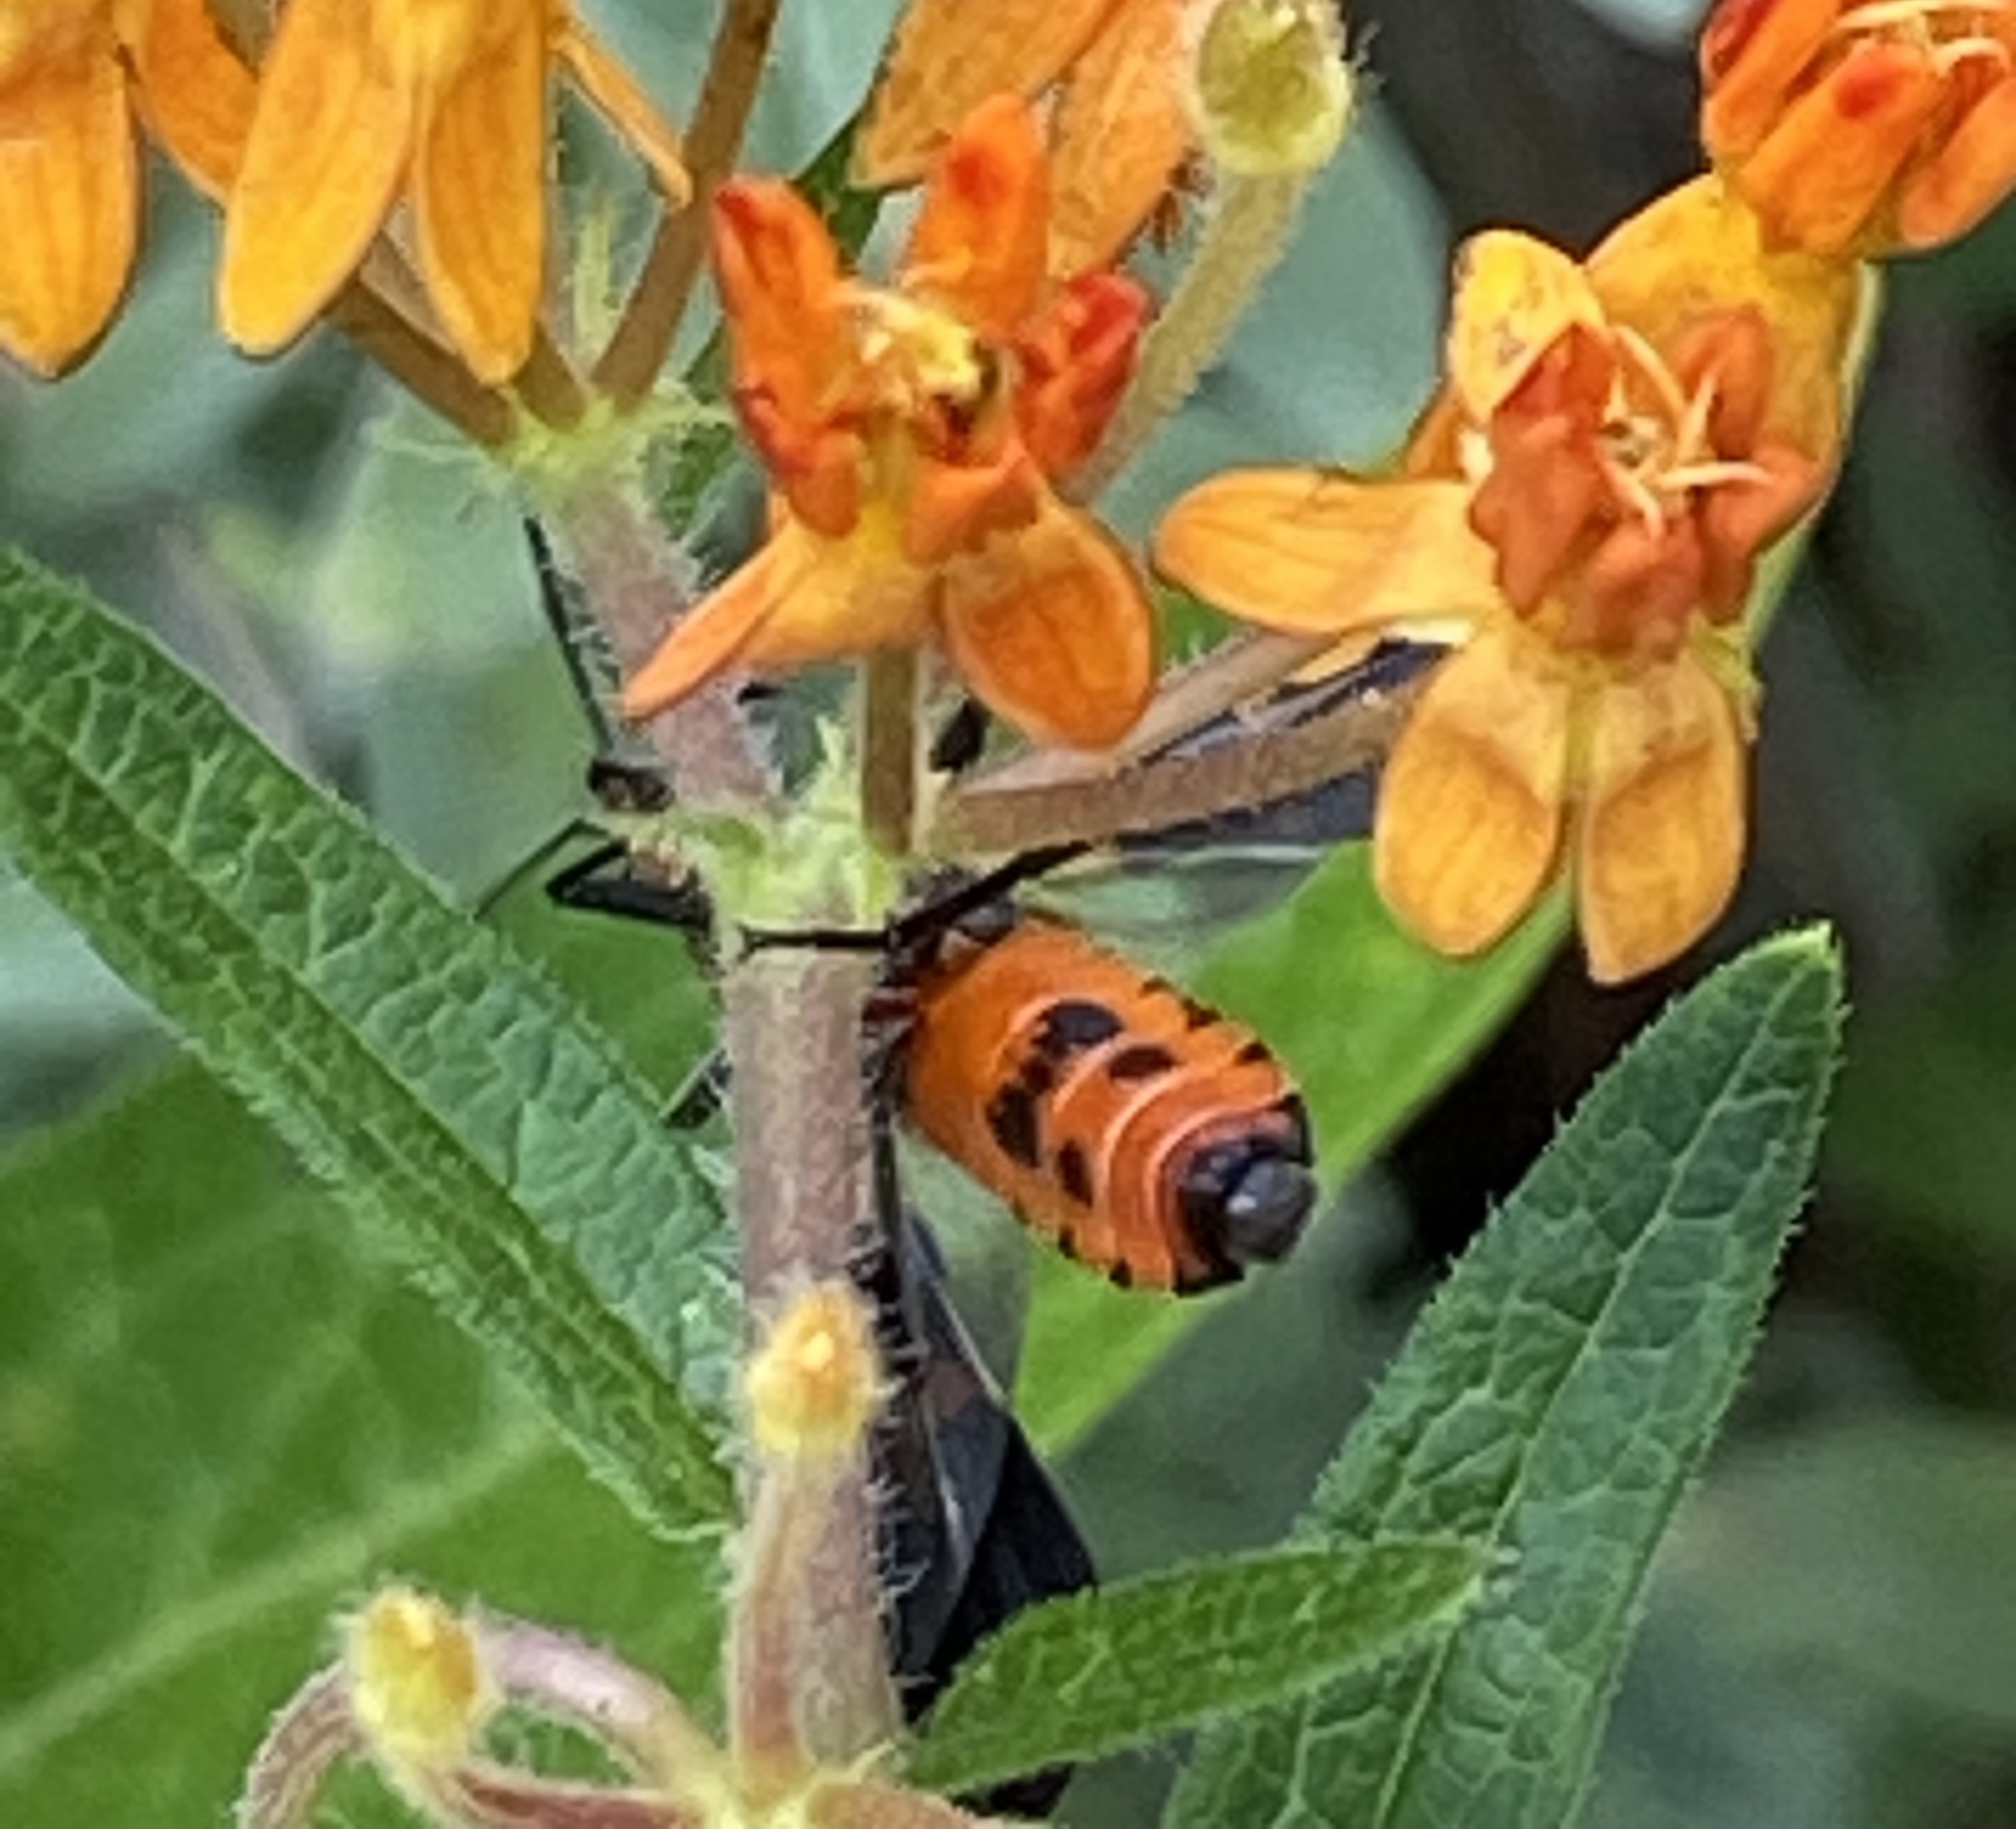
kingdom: Animalia
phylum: Arthropoda
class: Insecta
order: Hemiptera
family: Lygaeidae
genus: Oncopeltus
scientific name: Oncopeltus fasciatus
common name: Large milkweed bug
